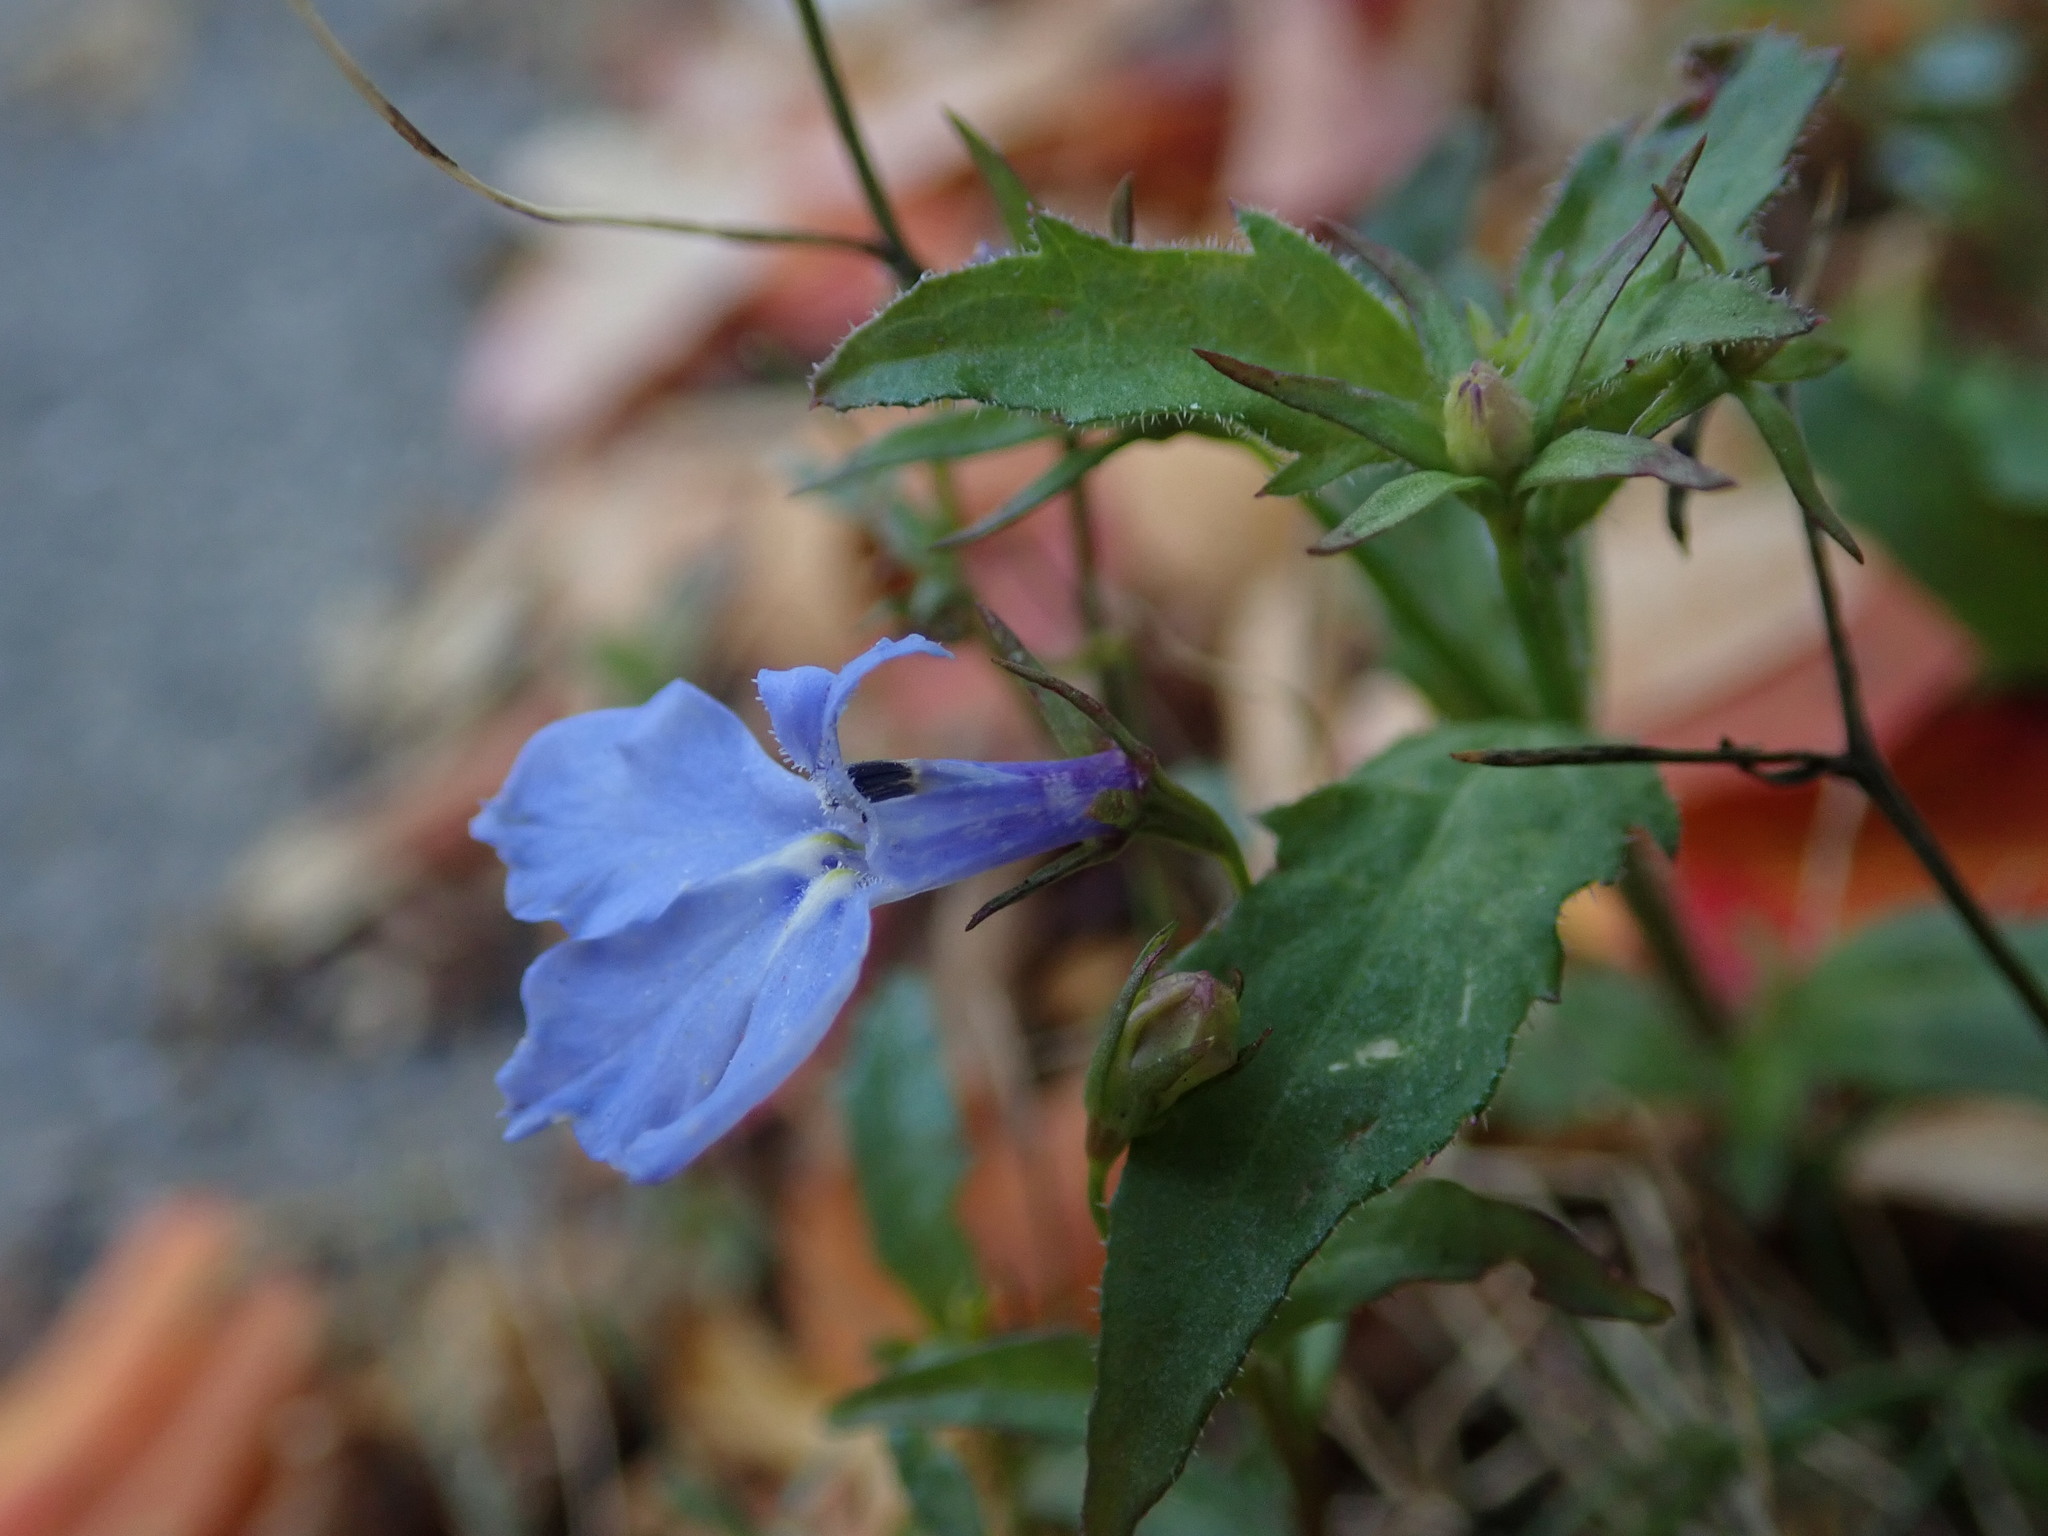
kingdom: Plantae
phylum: Tracheophyta
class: Magnoliopsida
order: Asterales
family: Campanulaceae
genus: Lobelia
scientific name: Lobelia erinus
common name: Edging lobelia
